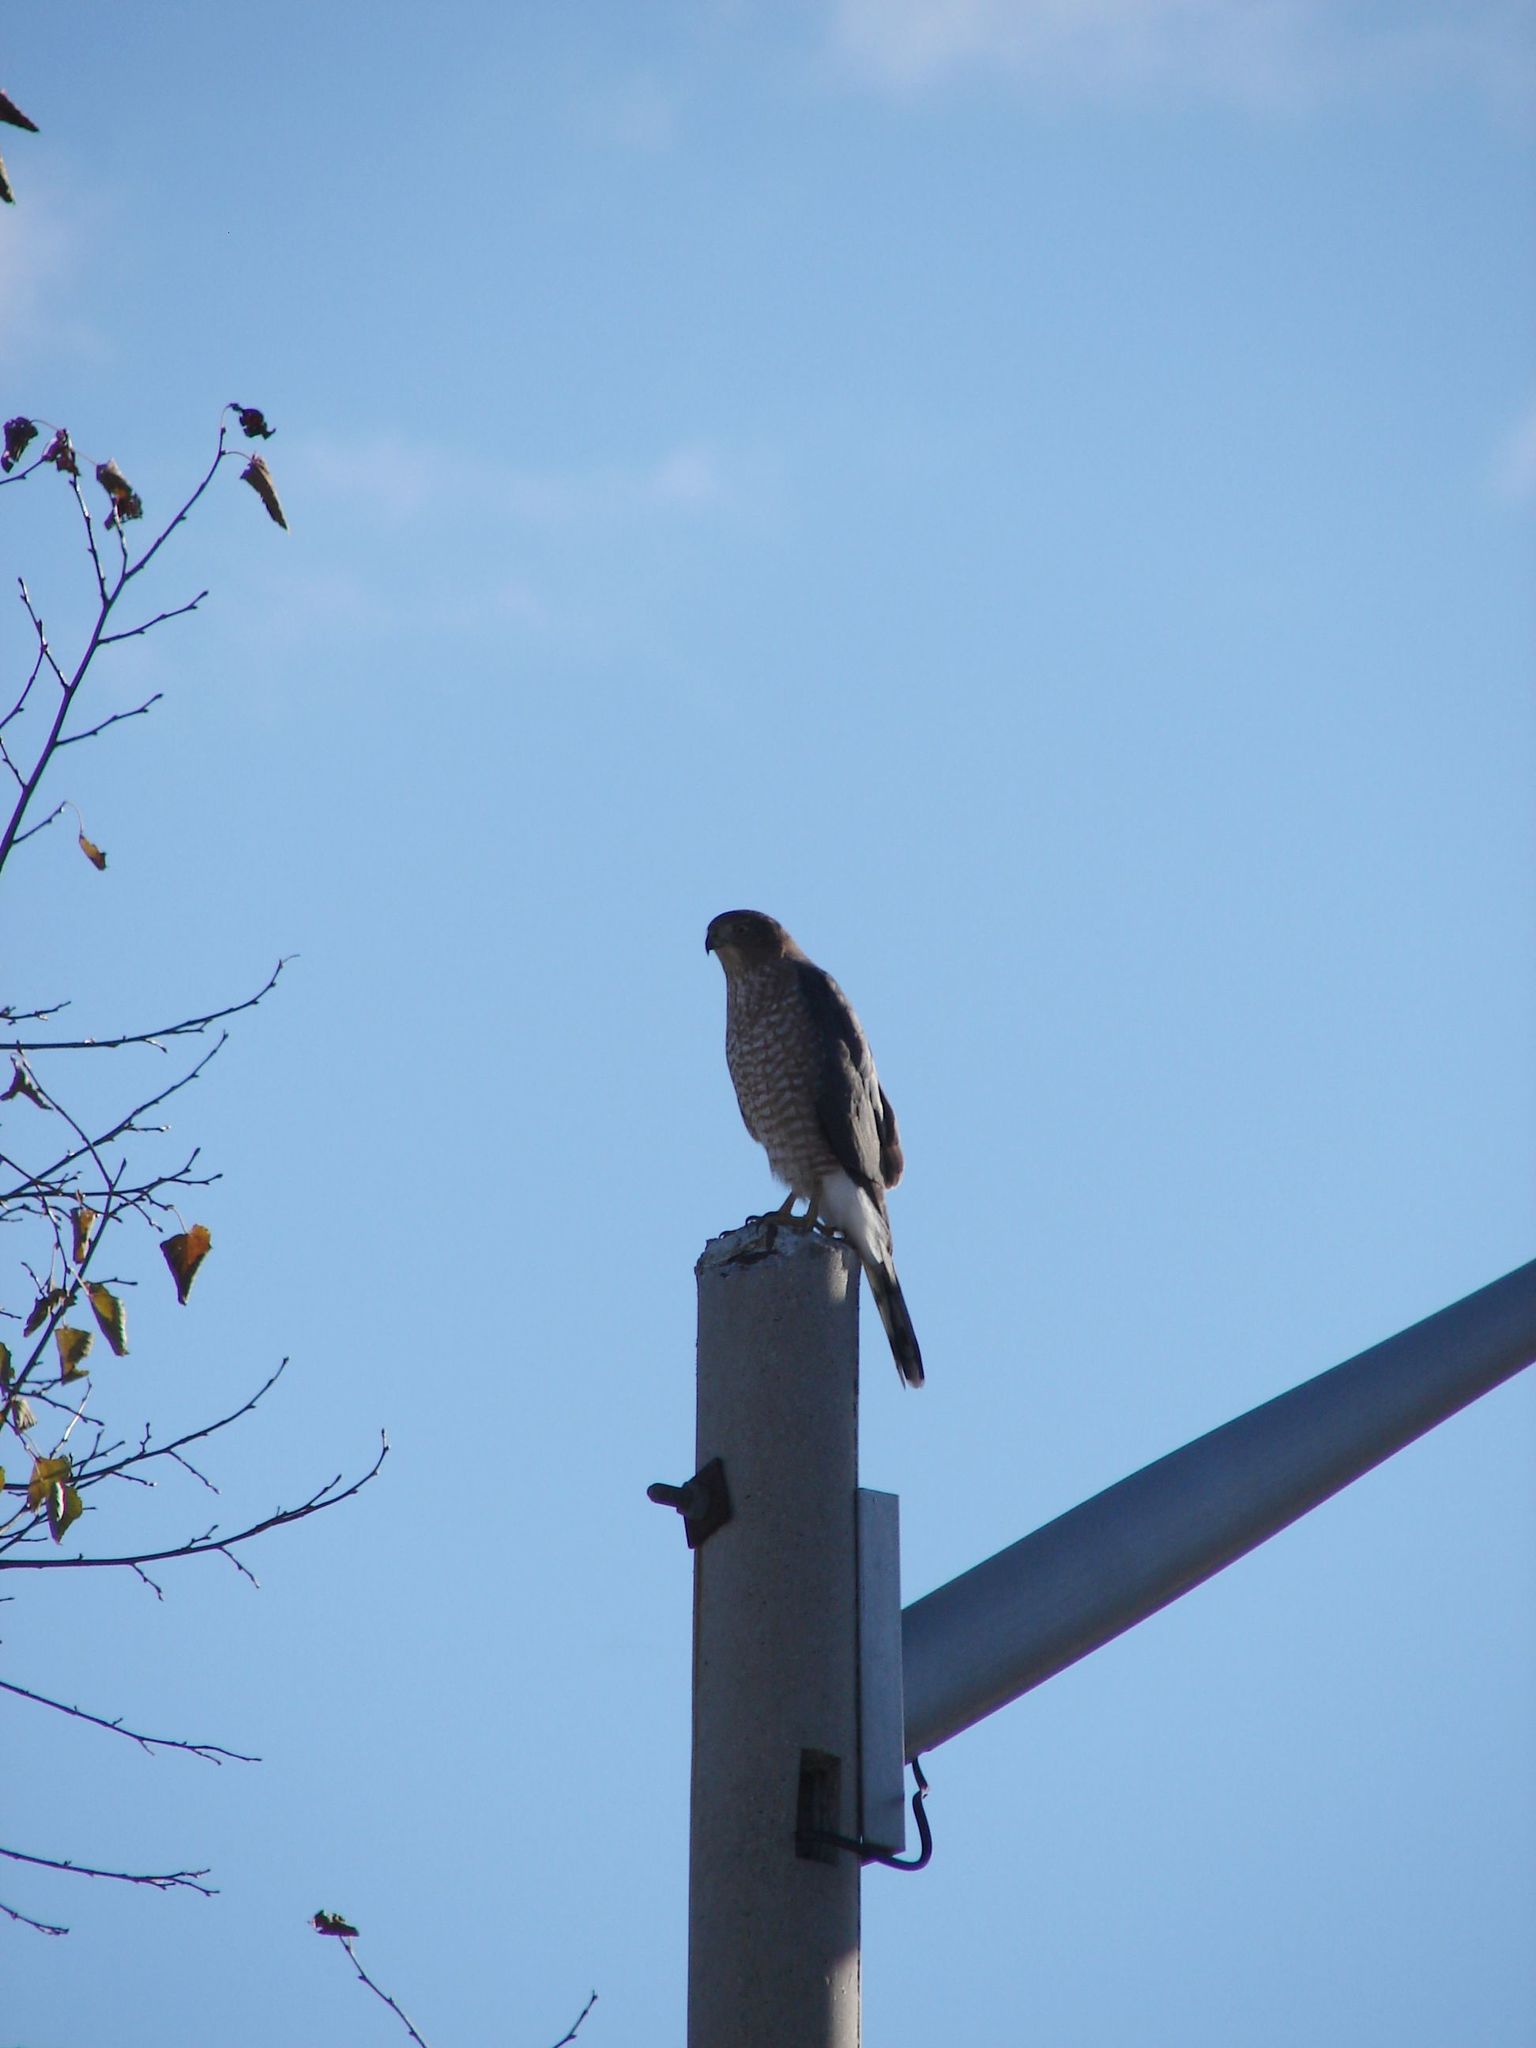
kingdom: Animalia
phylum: Chordata
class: Aves
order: Accipitriformes
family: Accipitridae
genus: Accipiter
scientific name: Accipiter cooperii
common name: Cooper's hawk
